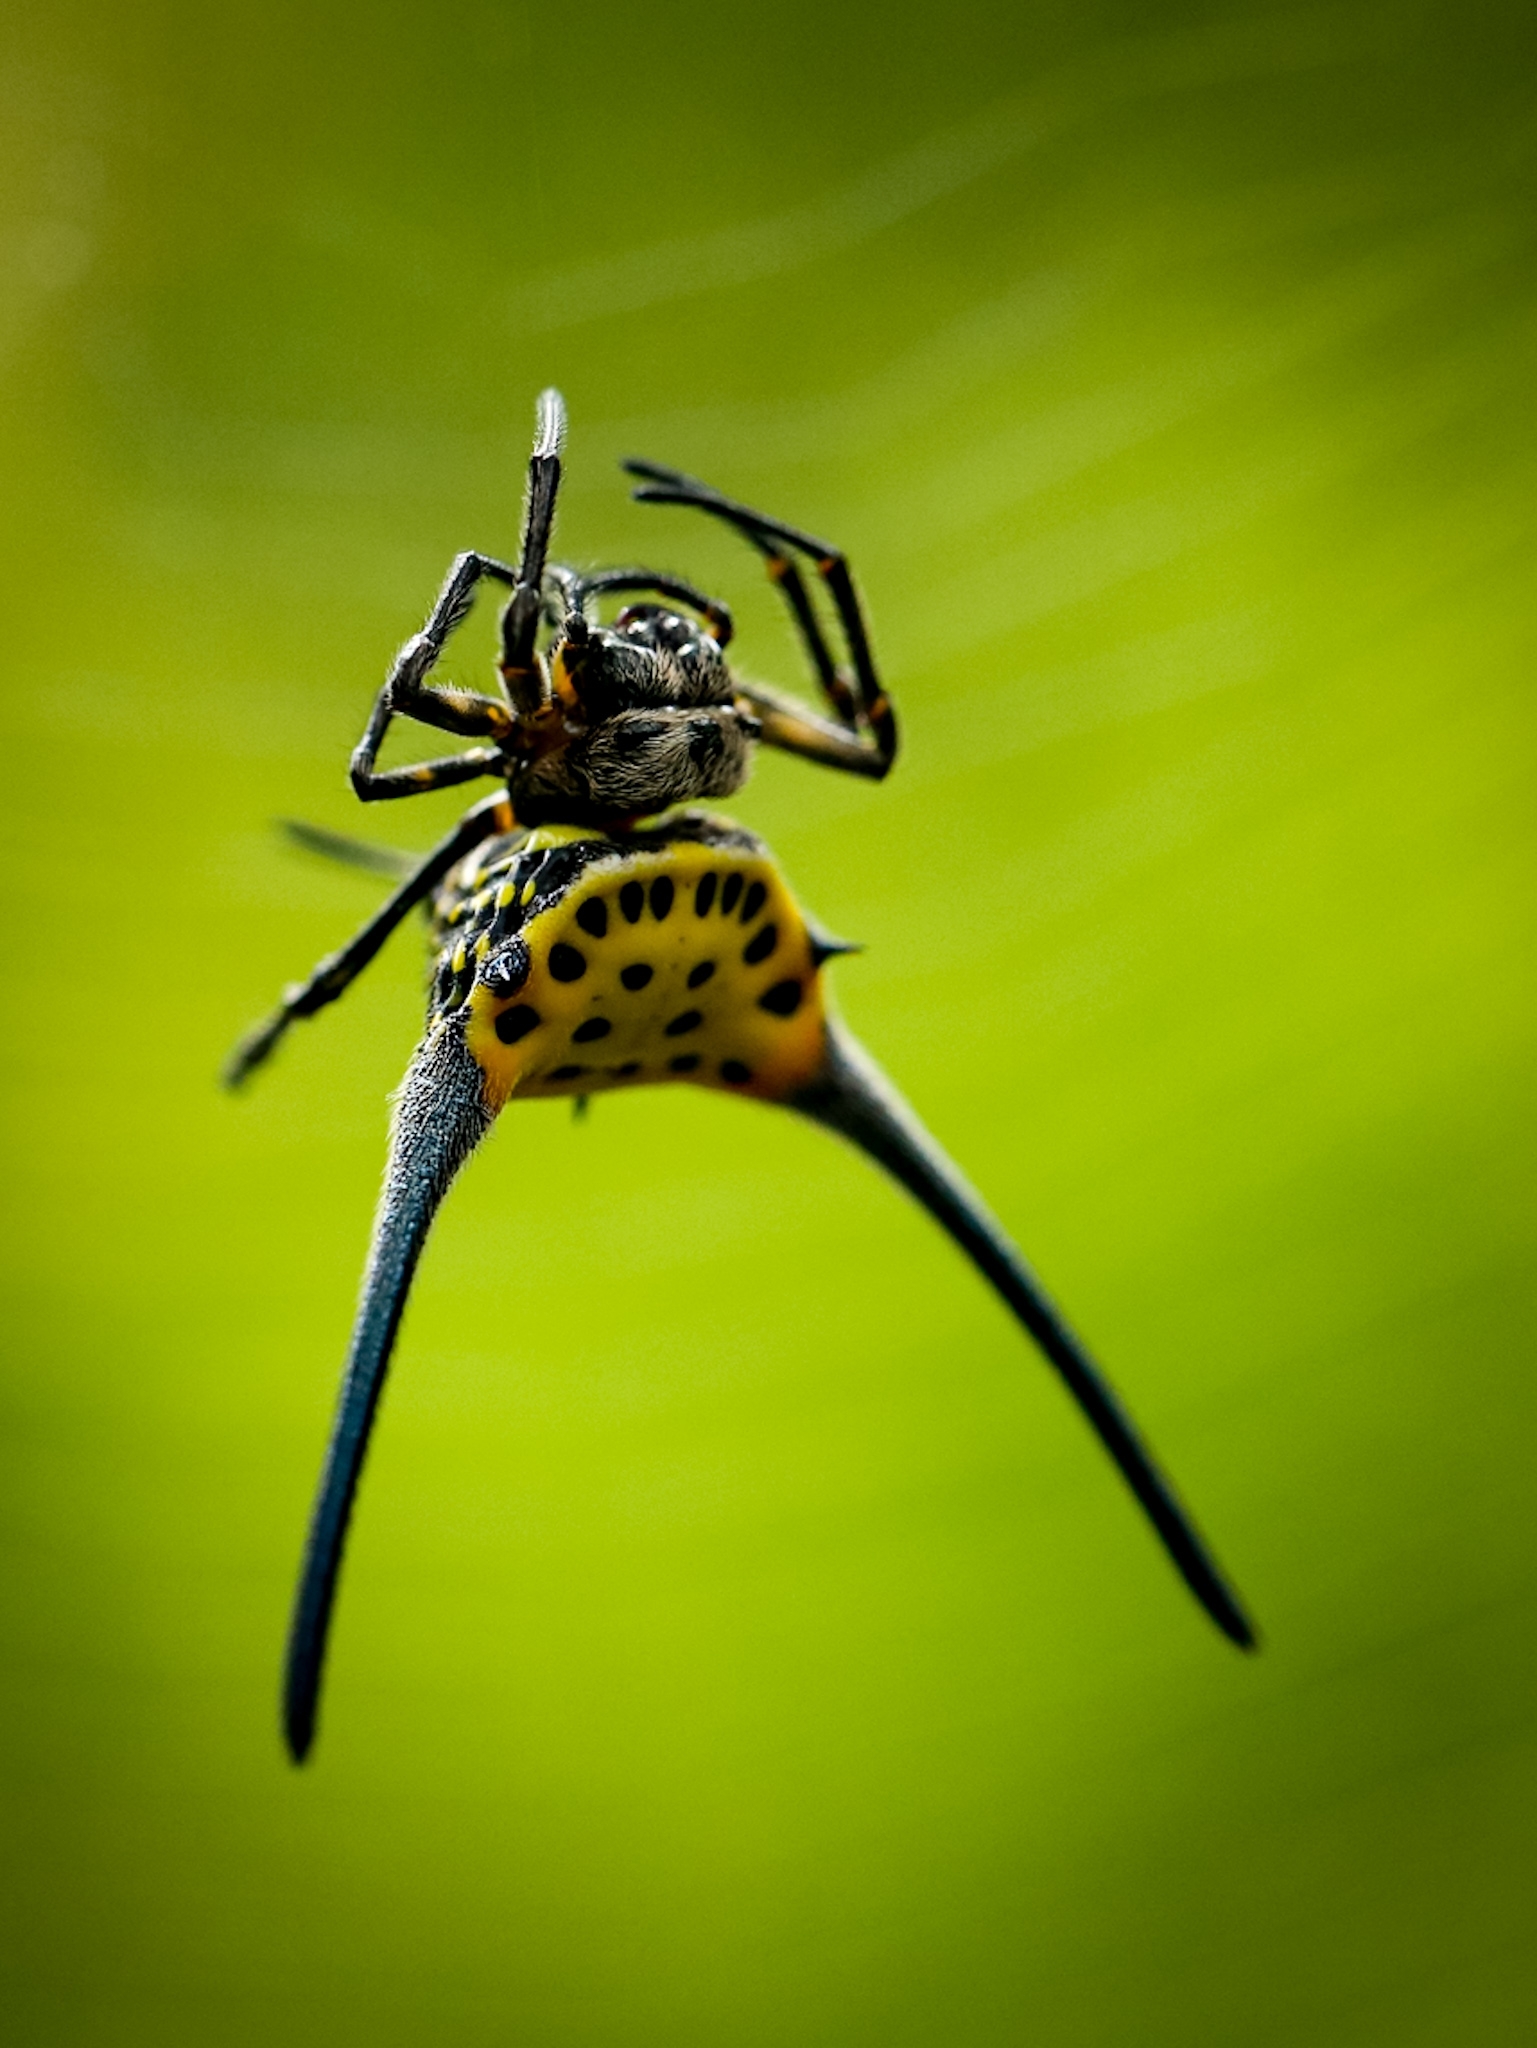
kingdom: Animalia
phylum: Arthropoda
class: Arachnida
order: Araneae
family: Araneidae
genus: Gasteracantha
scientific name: Gasteracantha dalyi
